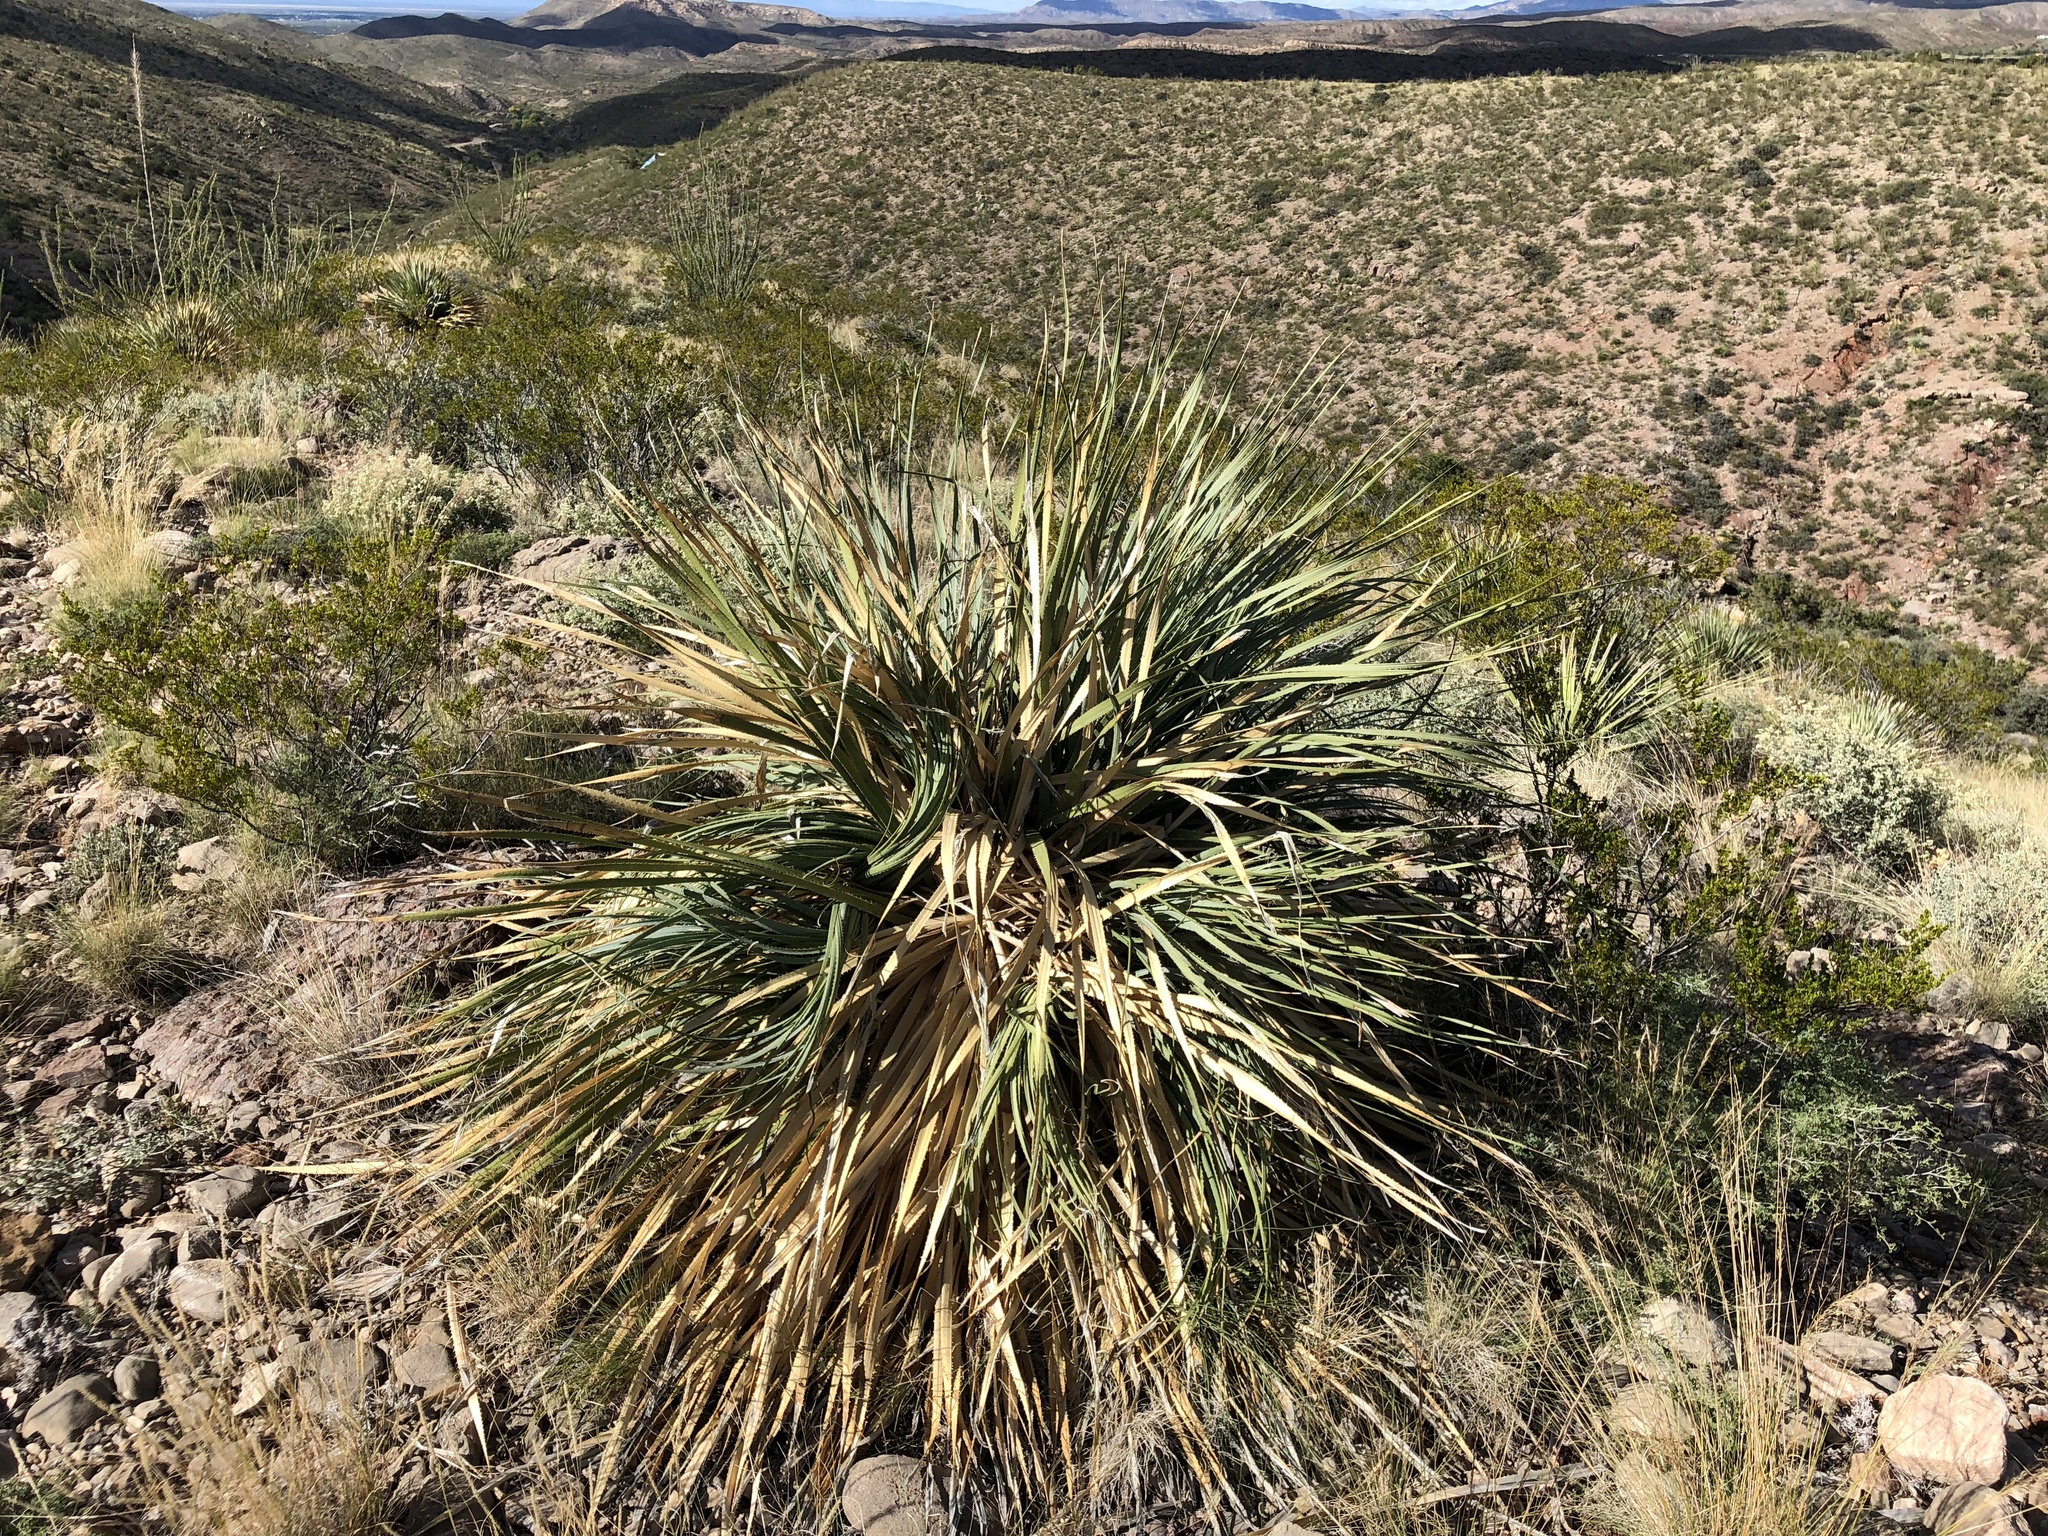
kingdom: Plantae
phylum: Tracheophyta
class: Liliopsida
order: Asparagales
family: Asparagaceae
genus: Dasylirion
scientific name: Dasylirion wheeleri
